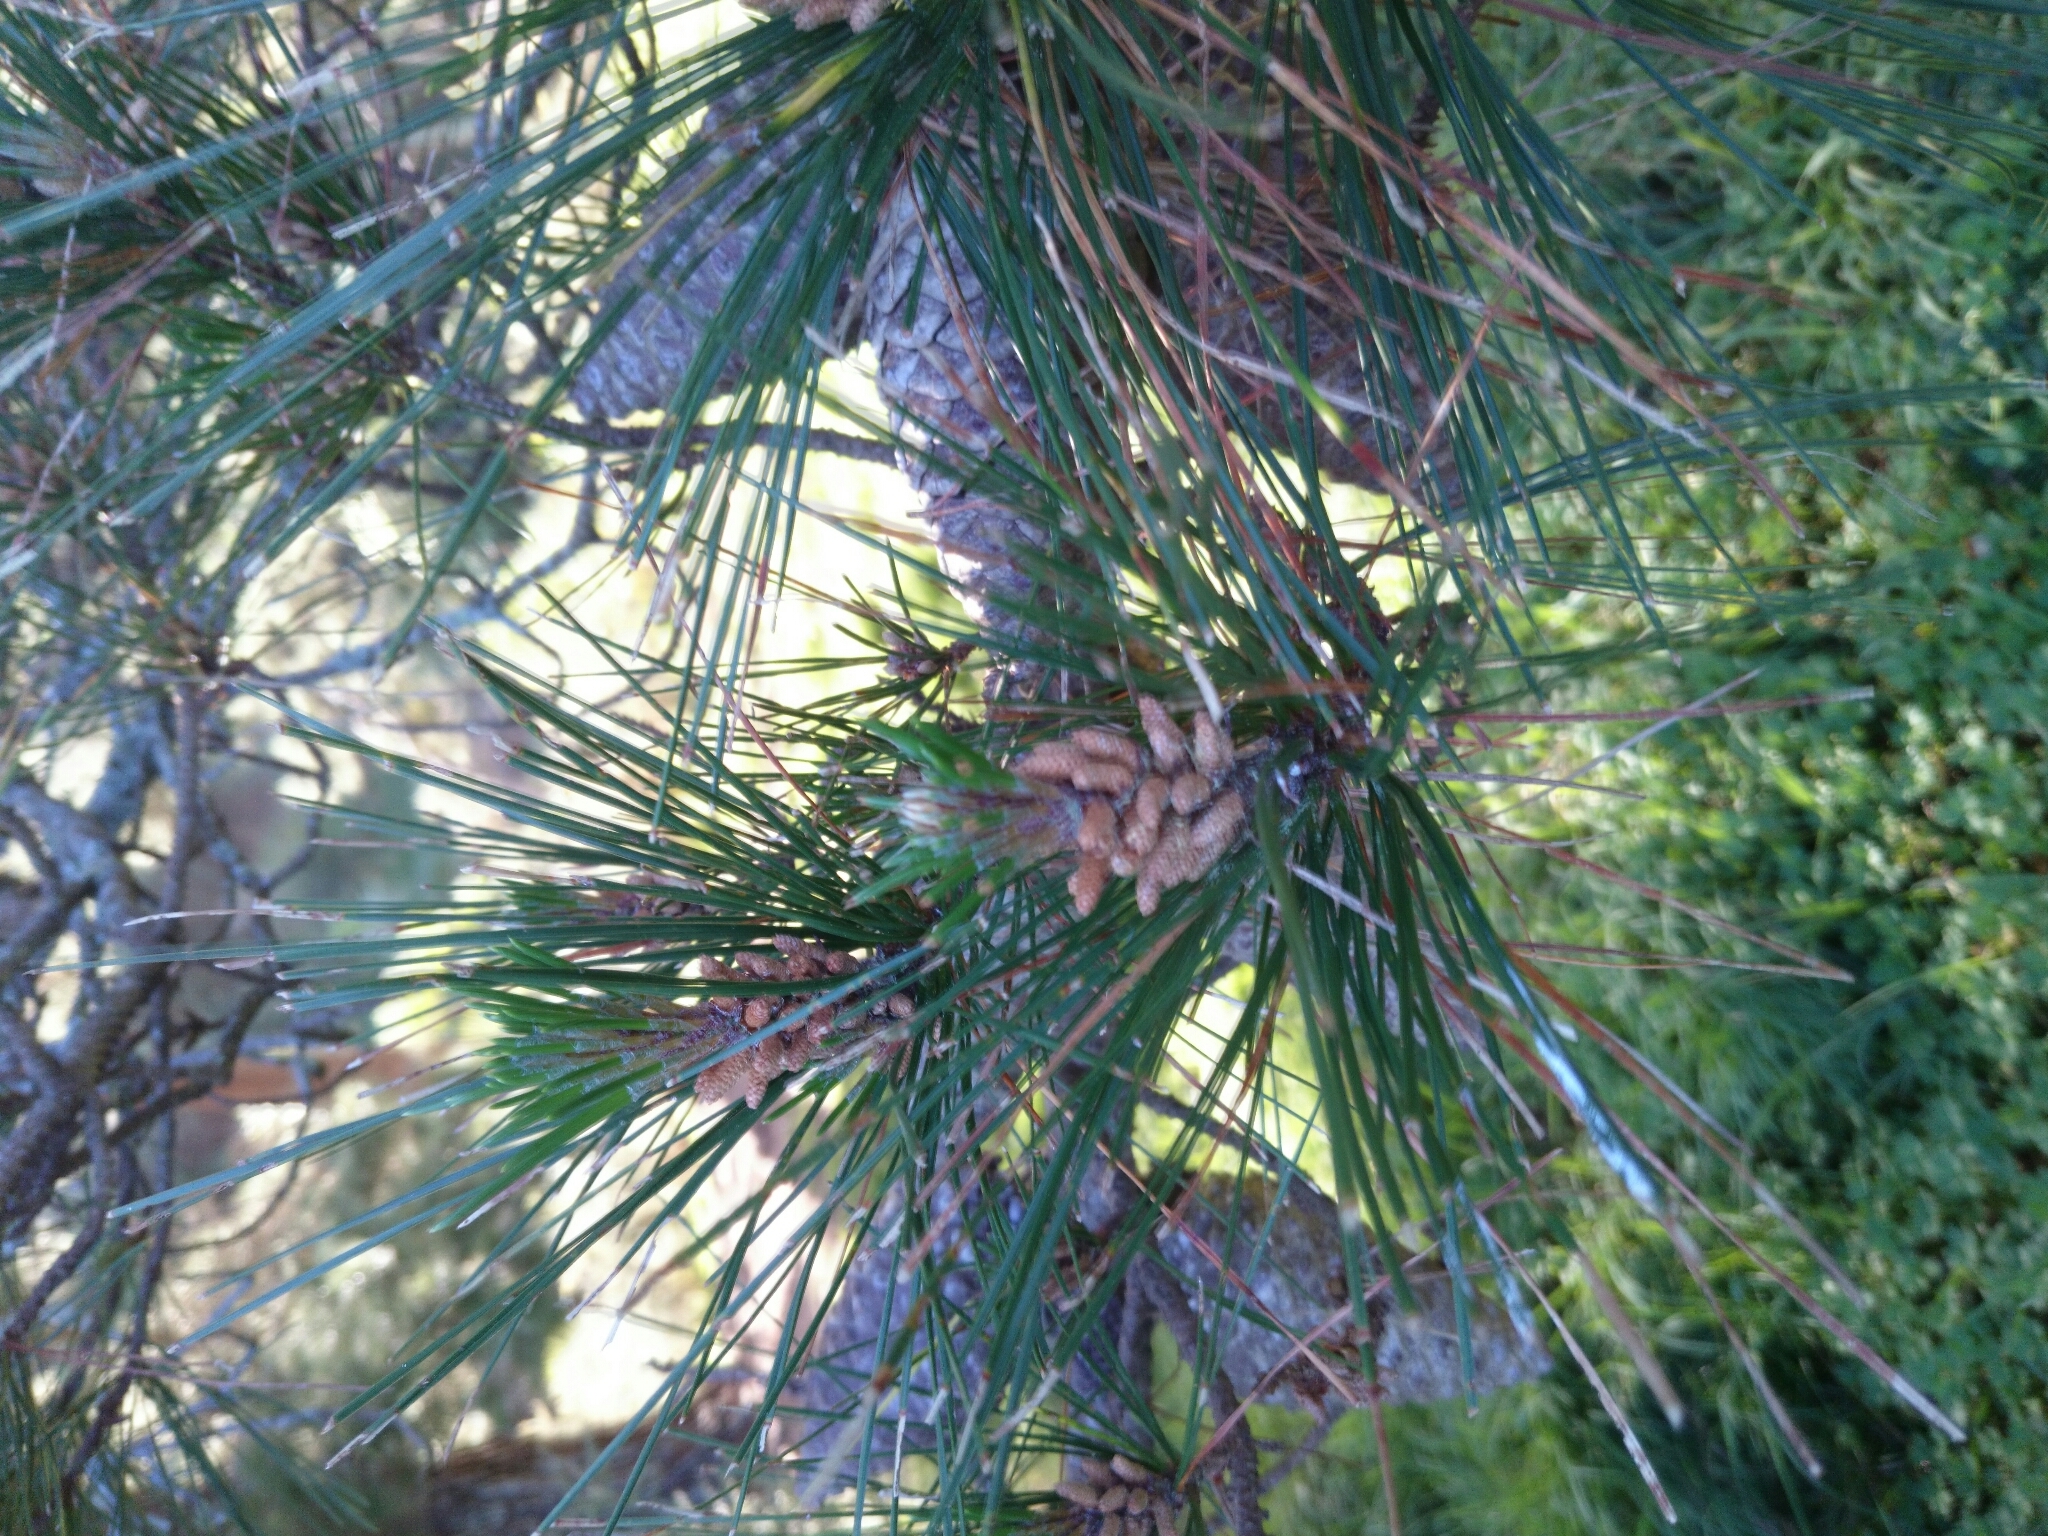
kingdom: Plantae
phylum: Tracheophyta
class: Pinopsida
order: Pinales
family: Pinaceae
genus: Pinus
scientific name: Pinus radiata
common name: Monterey pine
